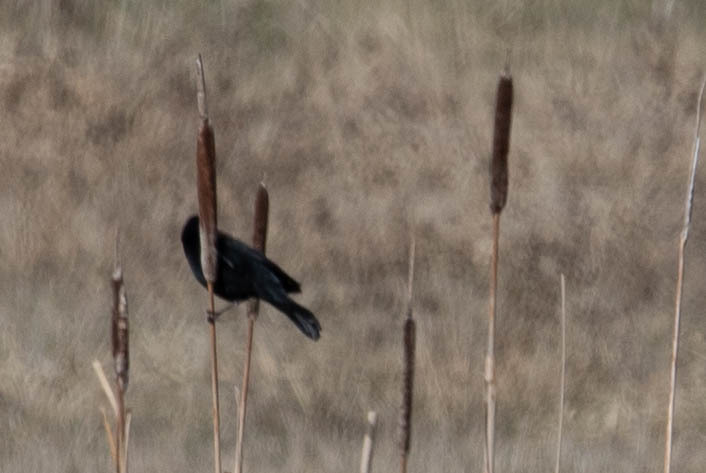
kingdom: Animalia
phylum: Chordata
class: Aves
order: Passeriformes
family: Icteridae
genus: Agelaius
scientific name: Agelaius phoeniceus
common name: Red-winged blackbird
